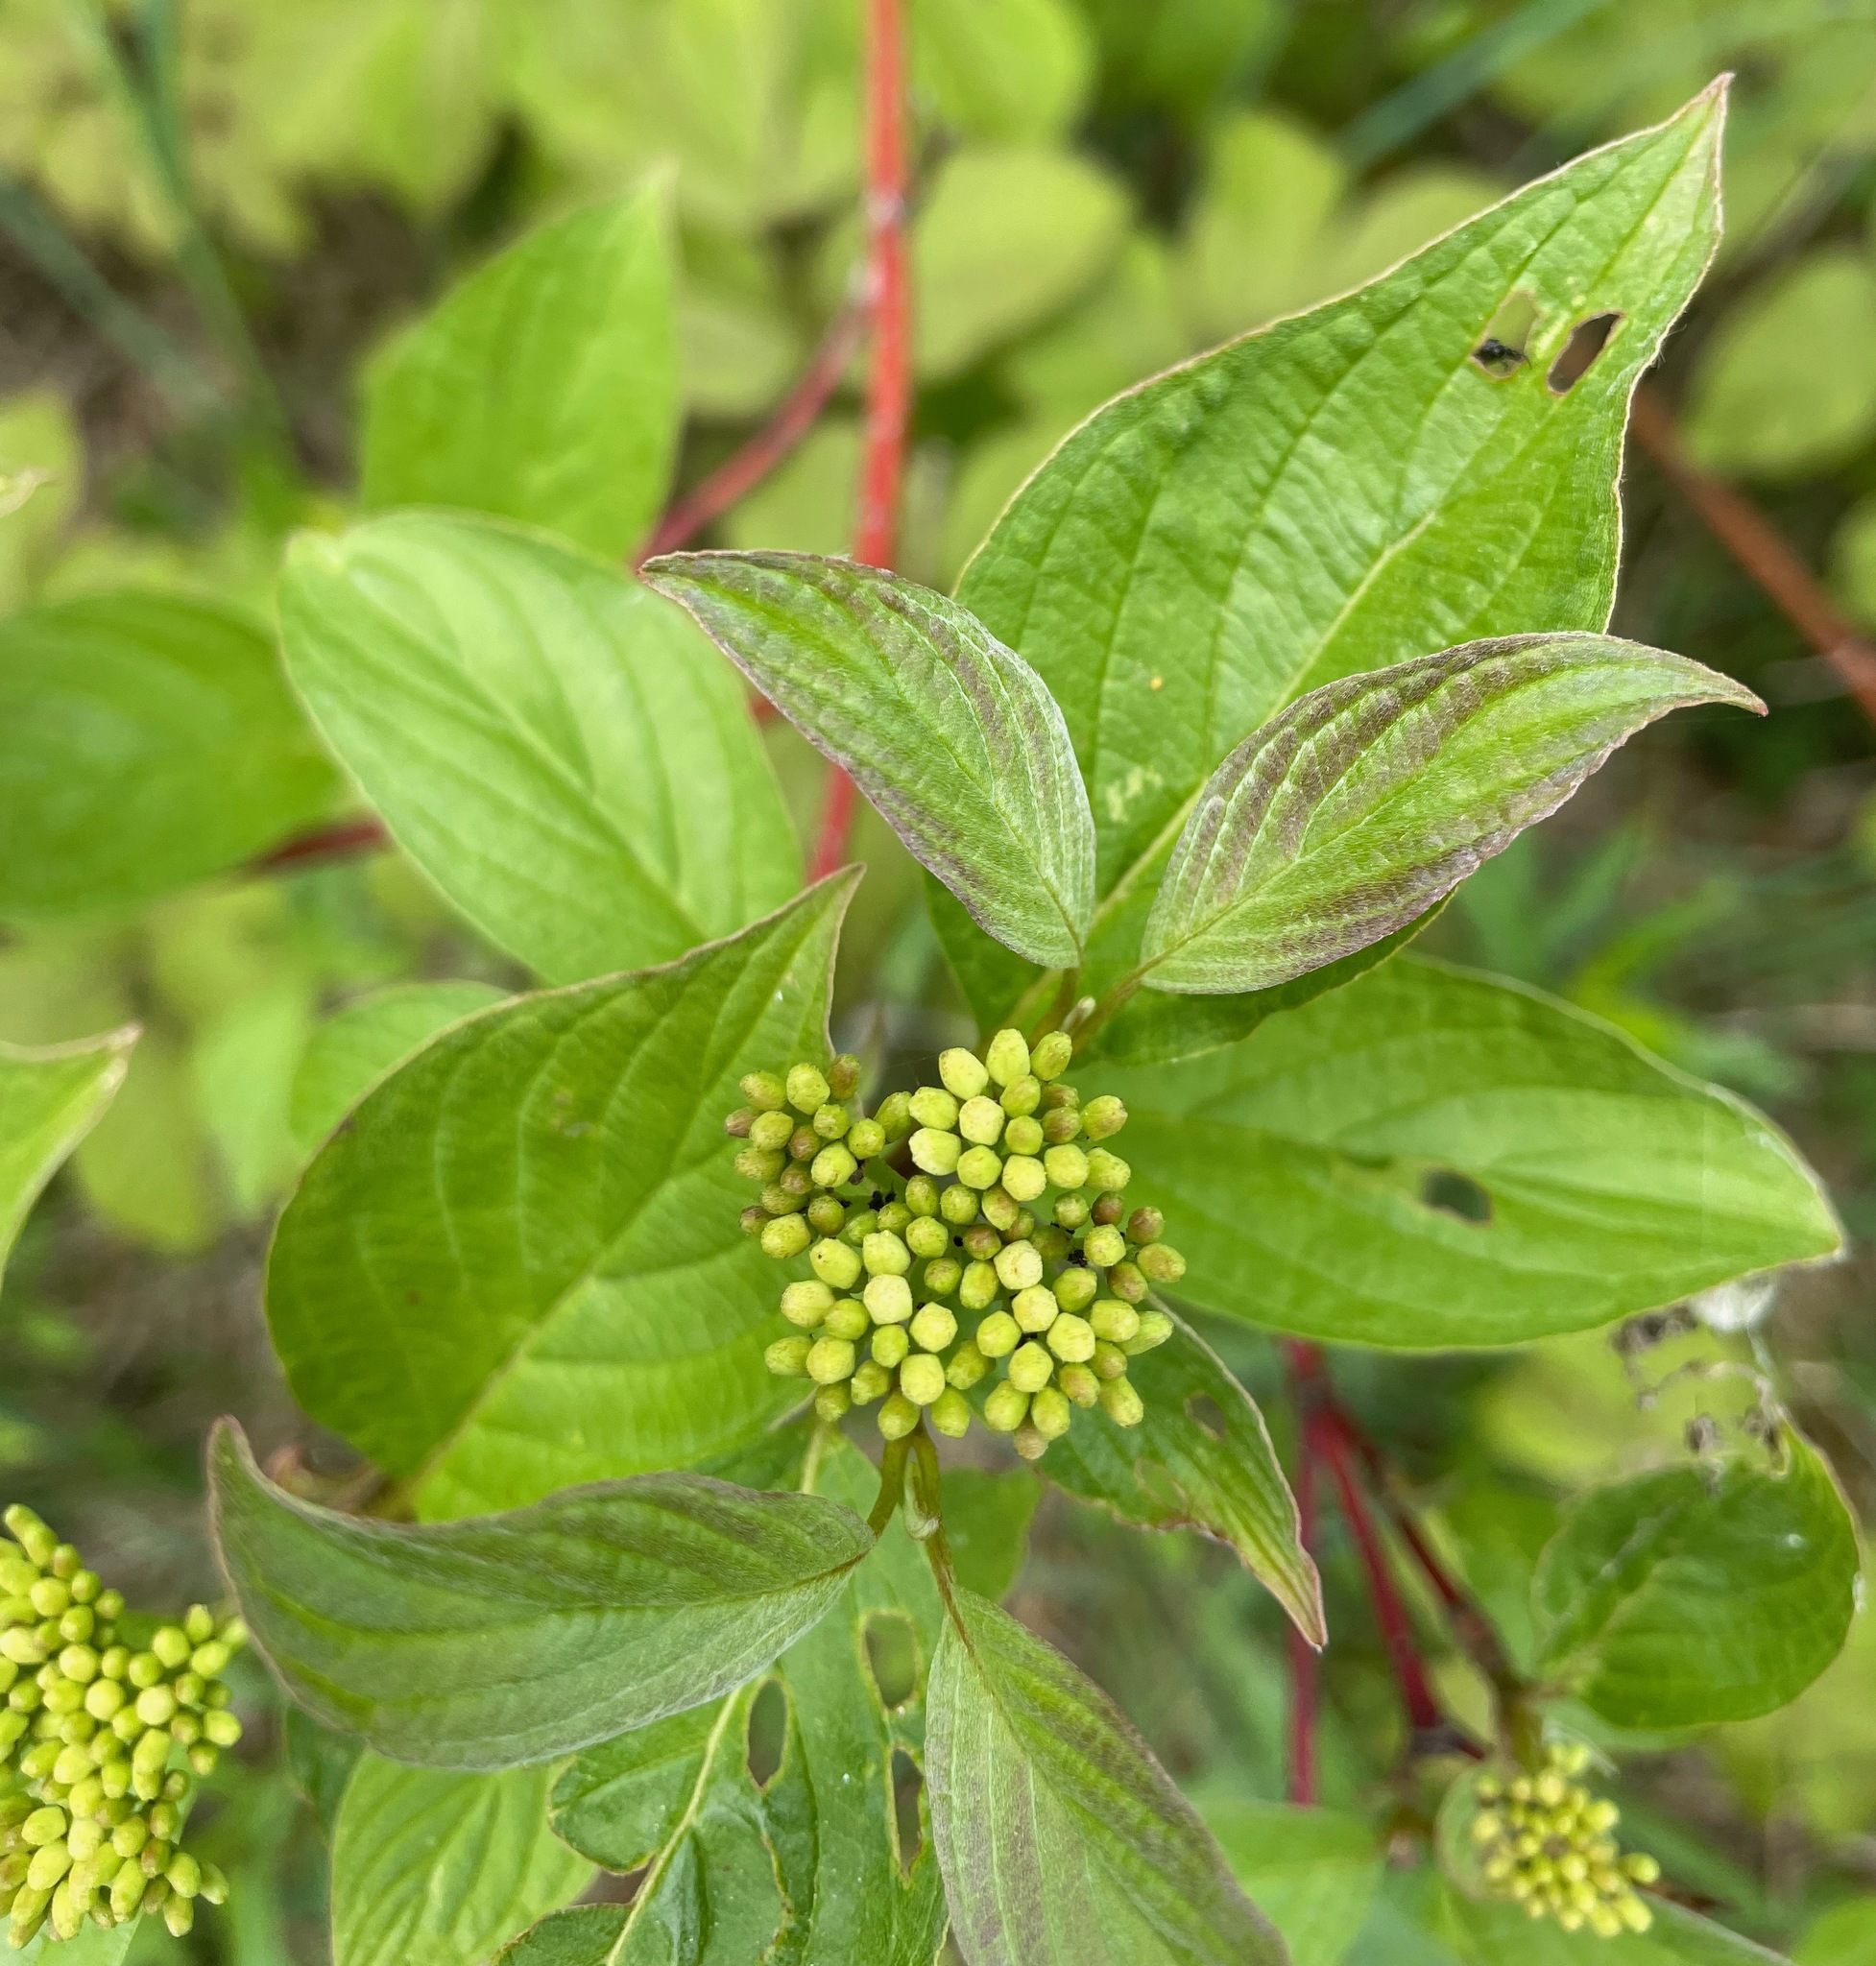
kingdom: Plantae
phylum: Tracheophyta
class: Magnoliopsida
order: Cornales
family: Cornaceae
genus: Cornus
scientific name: Cornus sericea
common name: Red-osier dogwood
